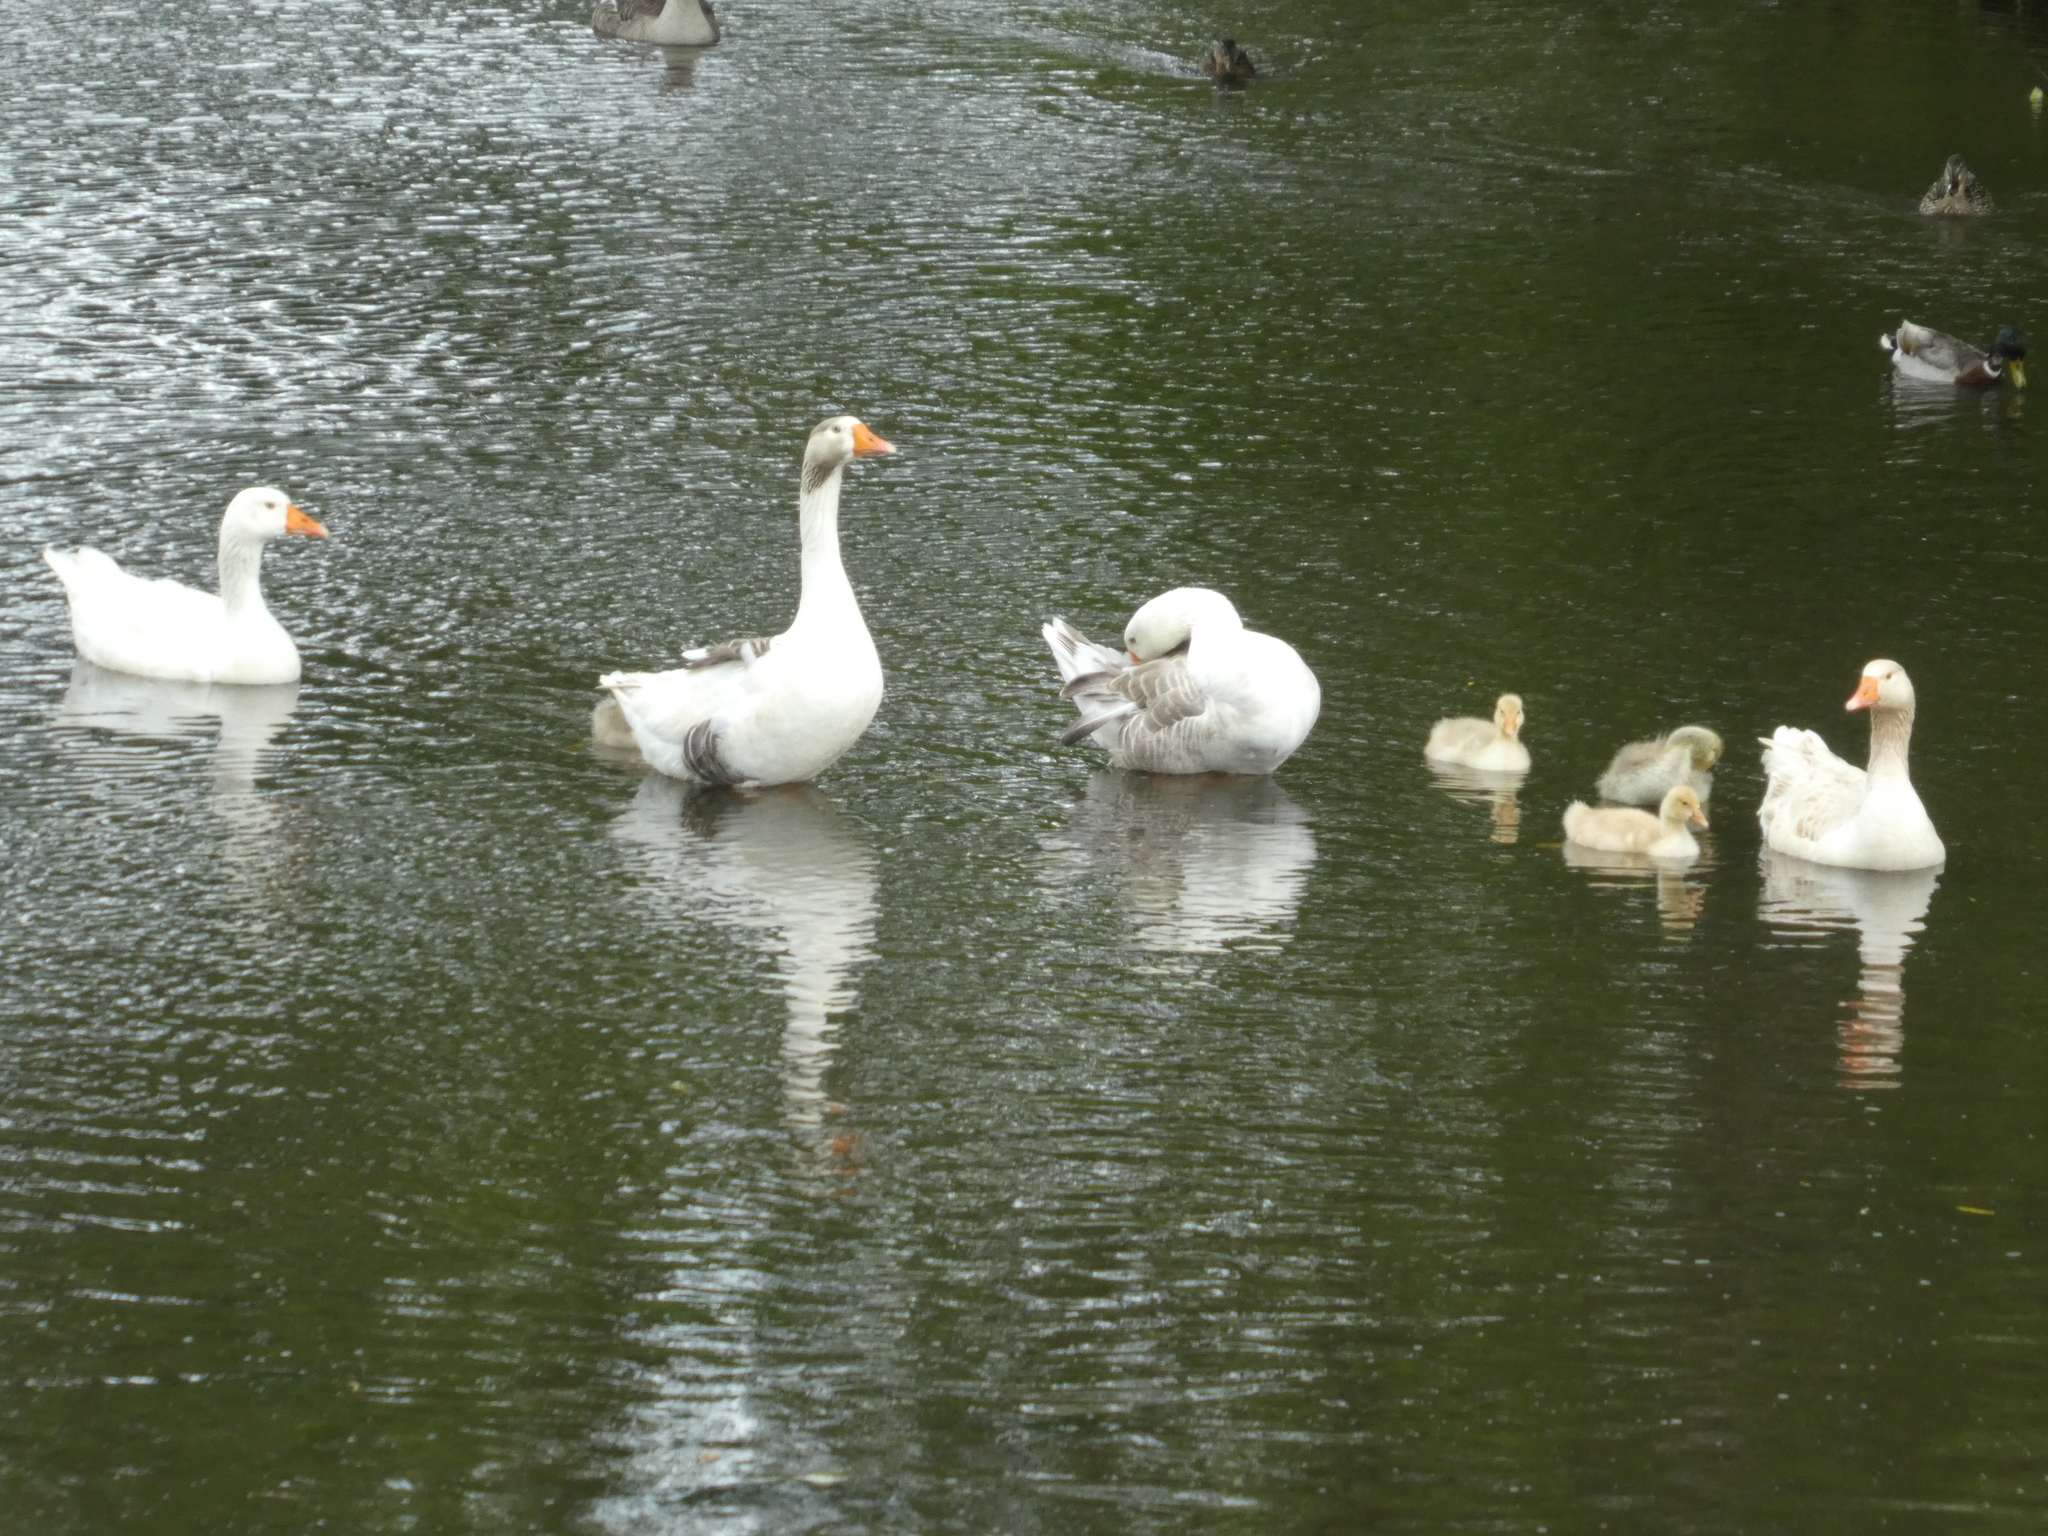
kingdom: Animalia
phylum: Chordata
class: Aves
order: Anseriformes
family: Anatidae
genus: Anser
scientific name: Anser anser
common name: Greylag goose
